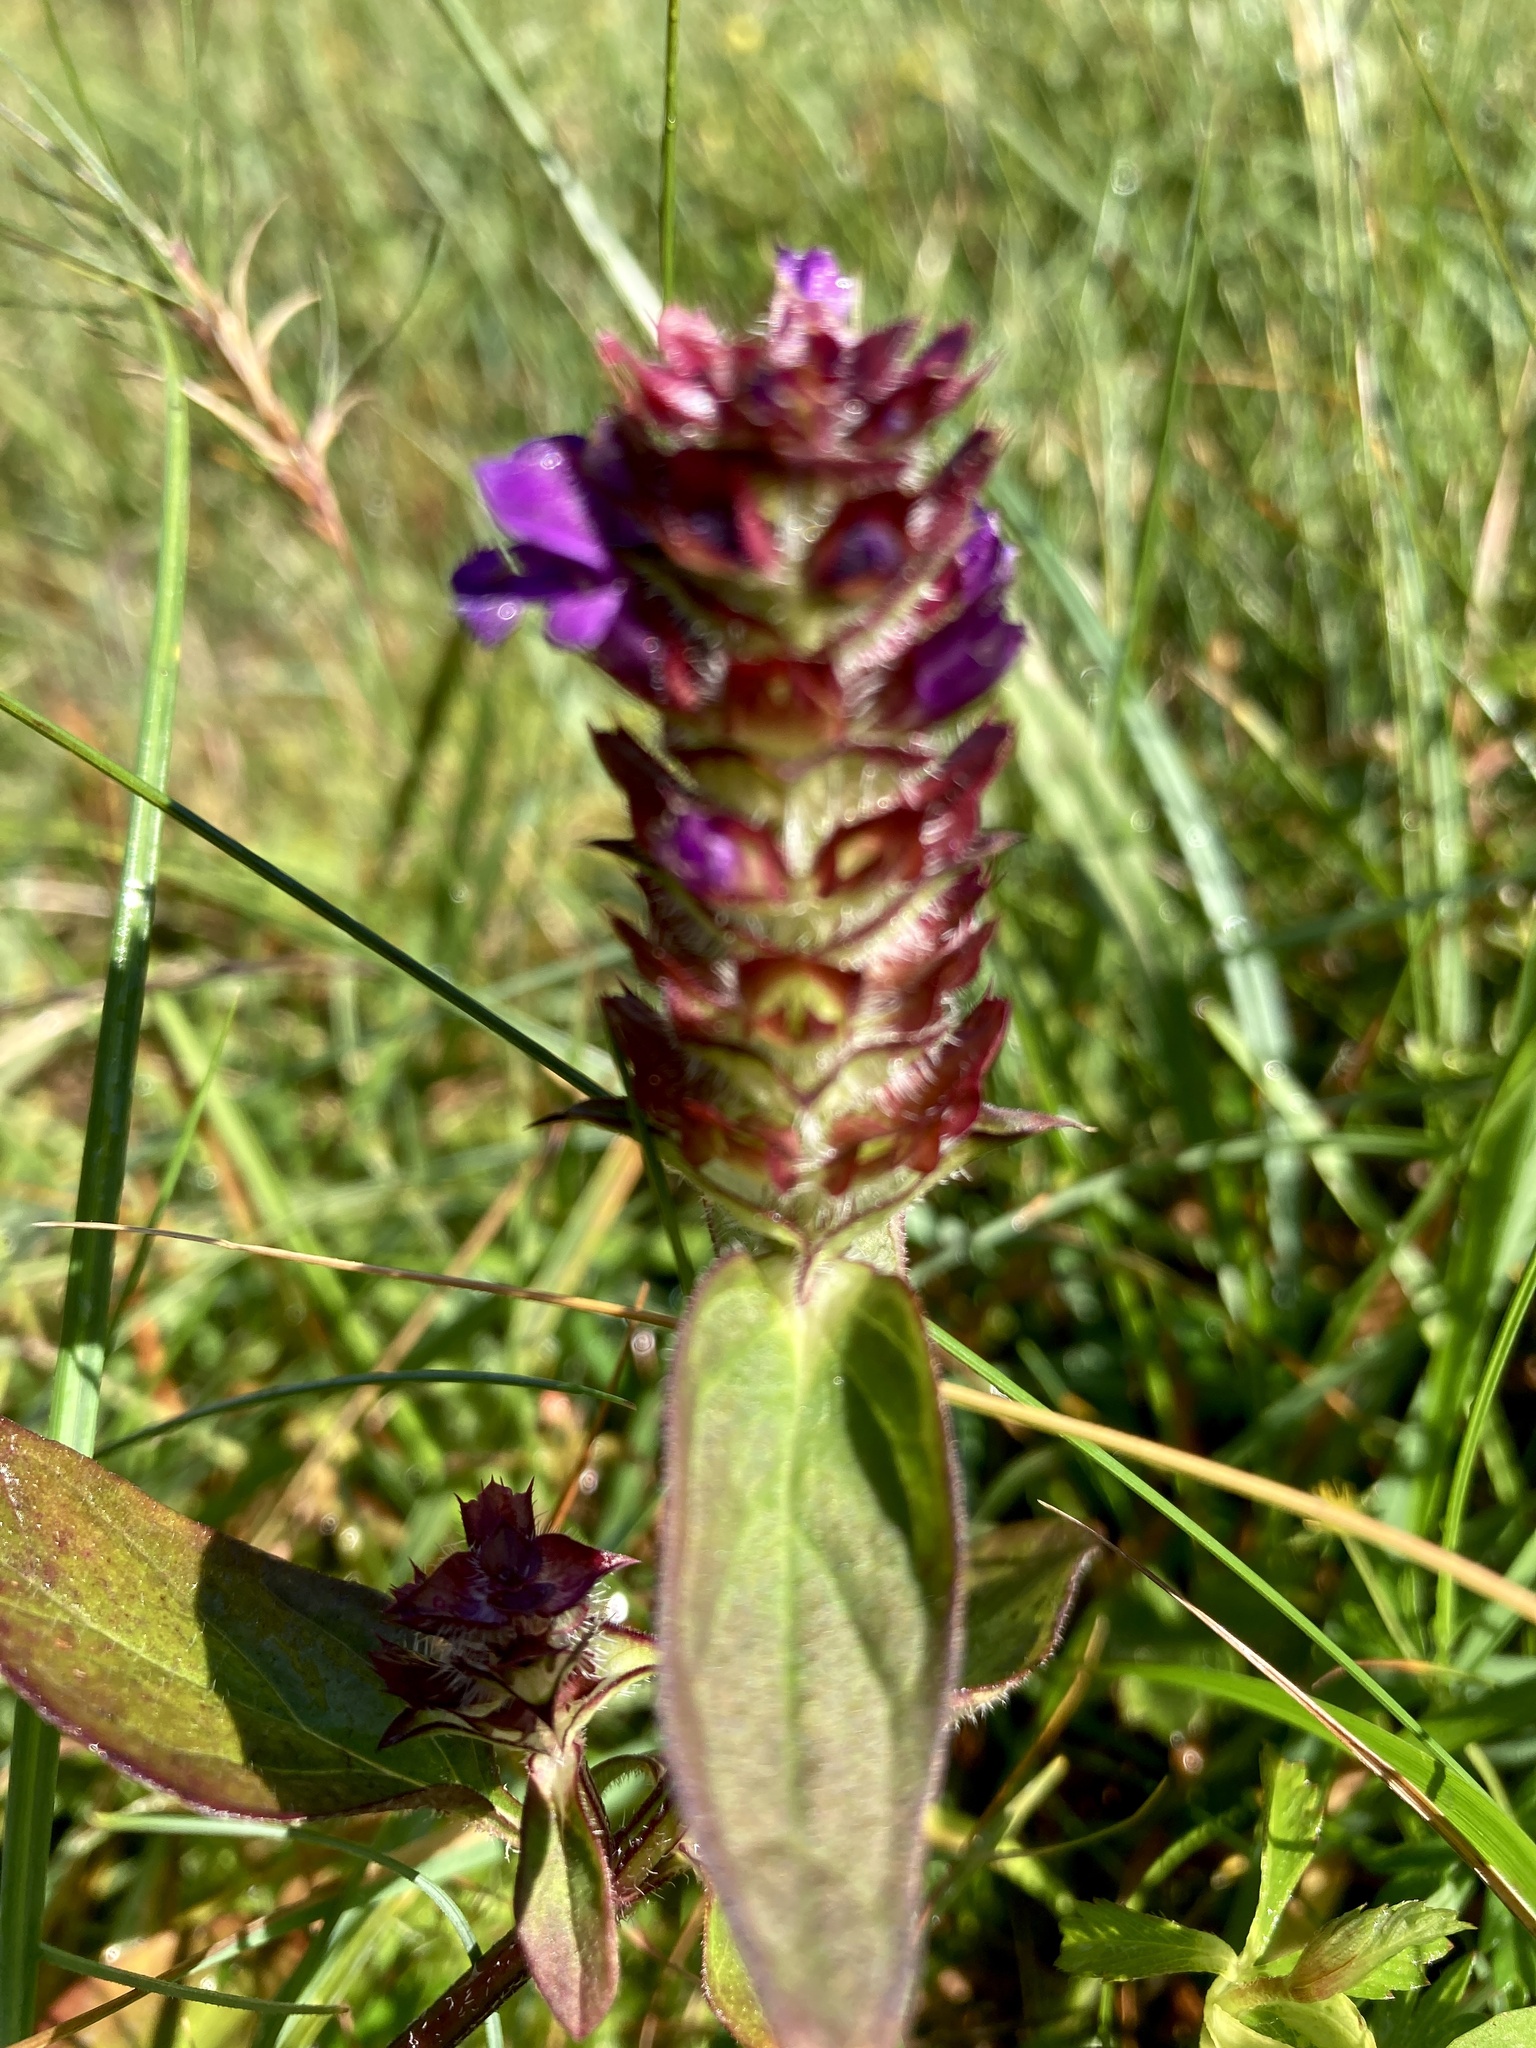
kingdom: Plantae
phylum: Tracheophyta
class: Magnoliopsida
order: Lamiales
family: Lamiaceae
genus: Prunella
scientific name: Prunella vulgaris
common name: Heal-all
